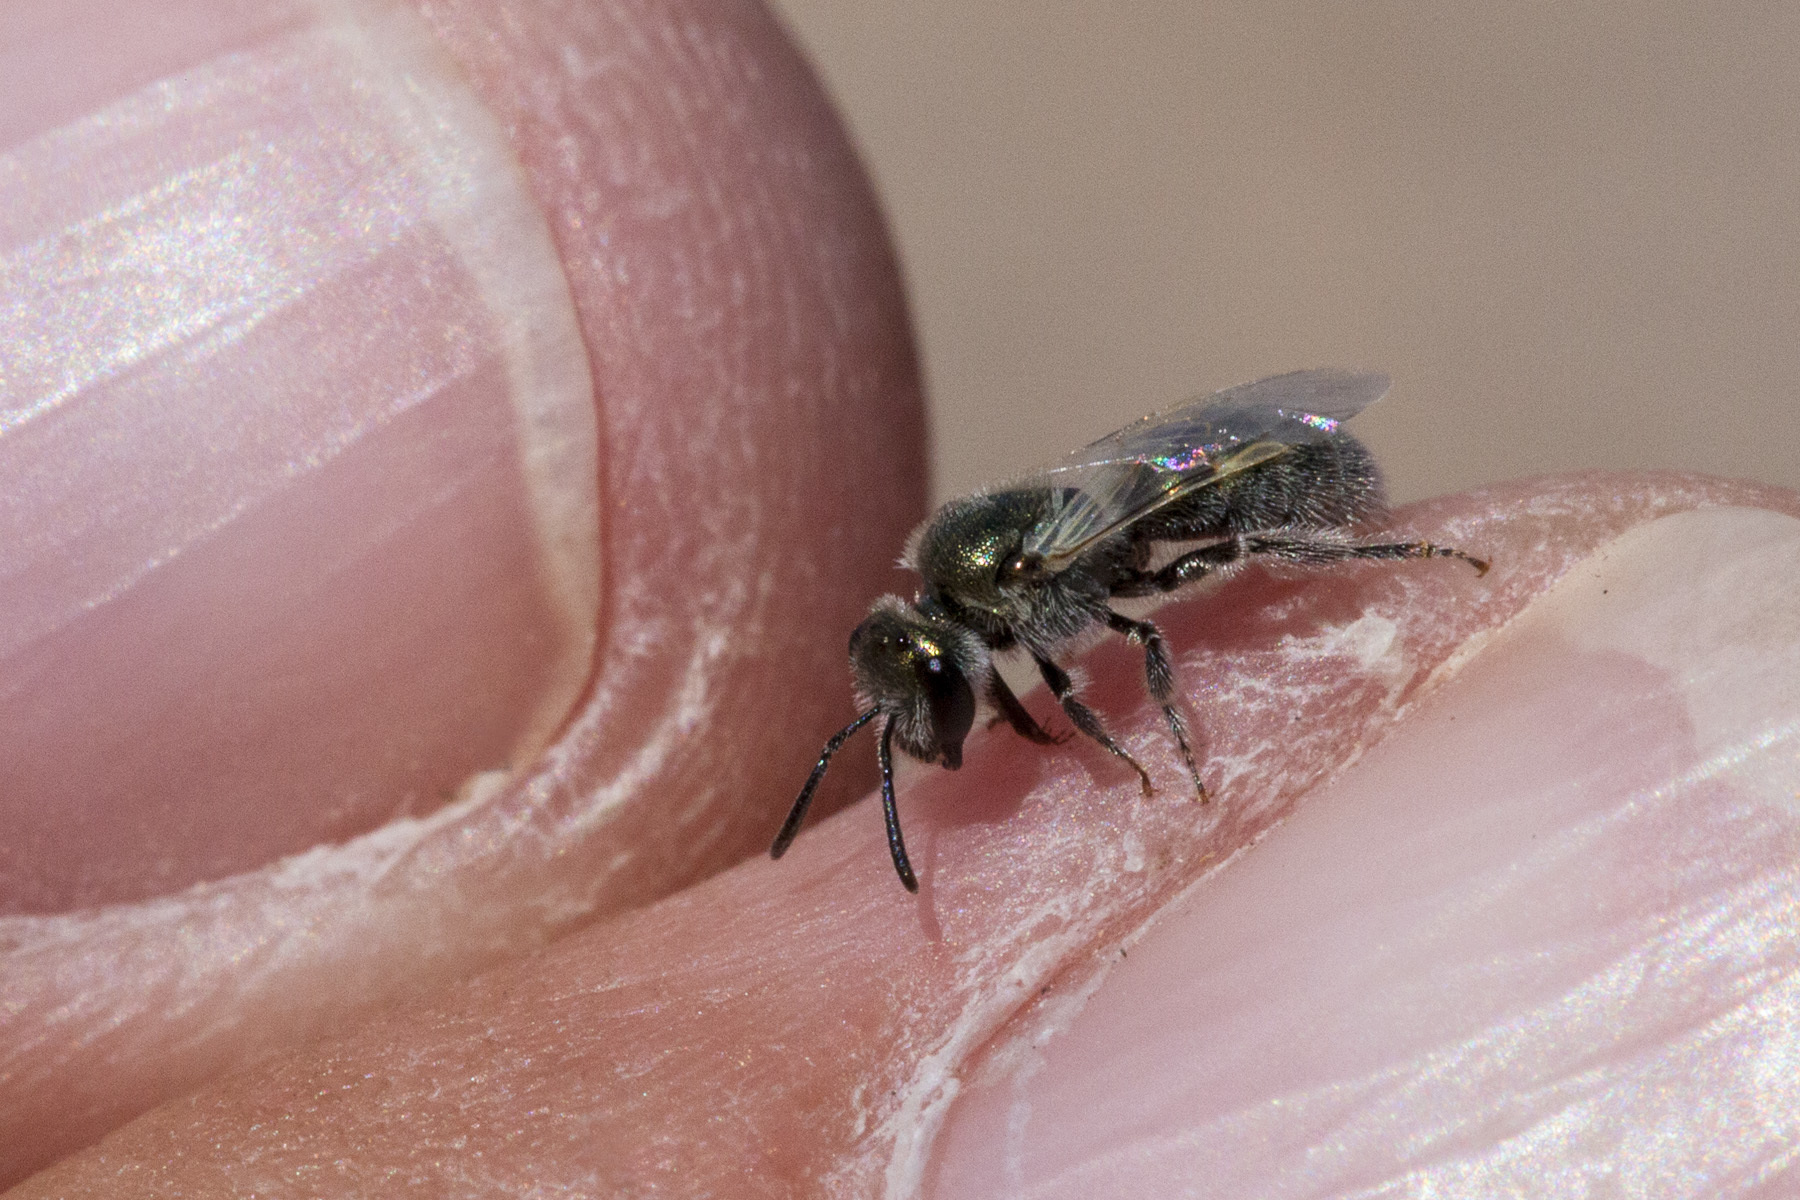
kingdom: Animalia
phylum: Arthropoda
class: Insecta
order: Hymenoptera
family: Halictidae
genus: Dialictus
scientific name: Dialictus
